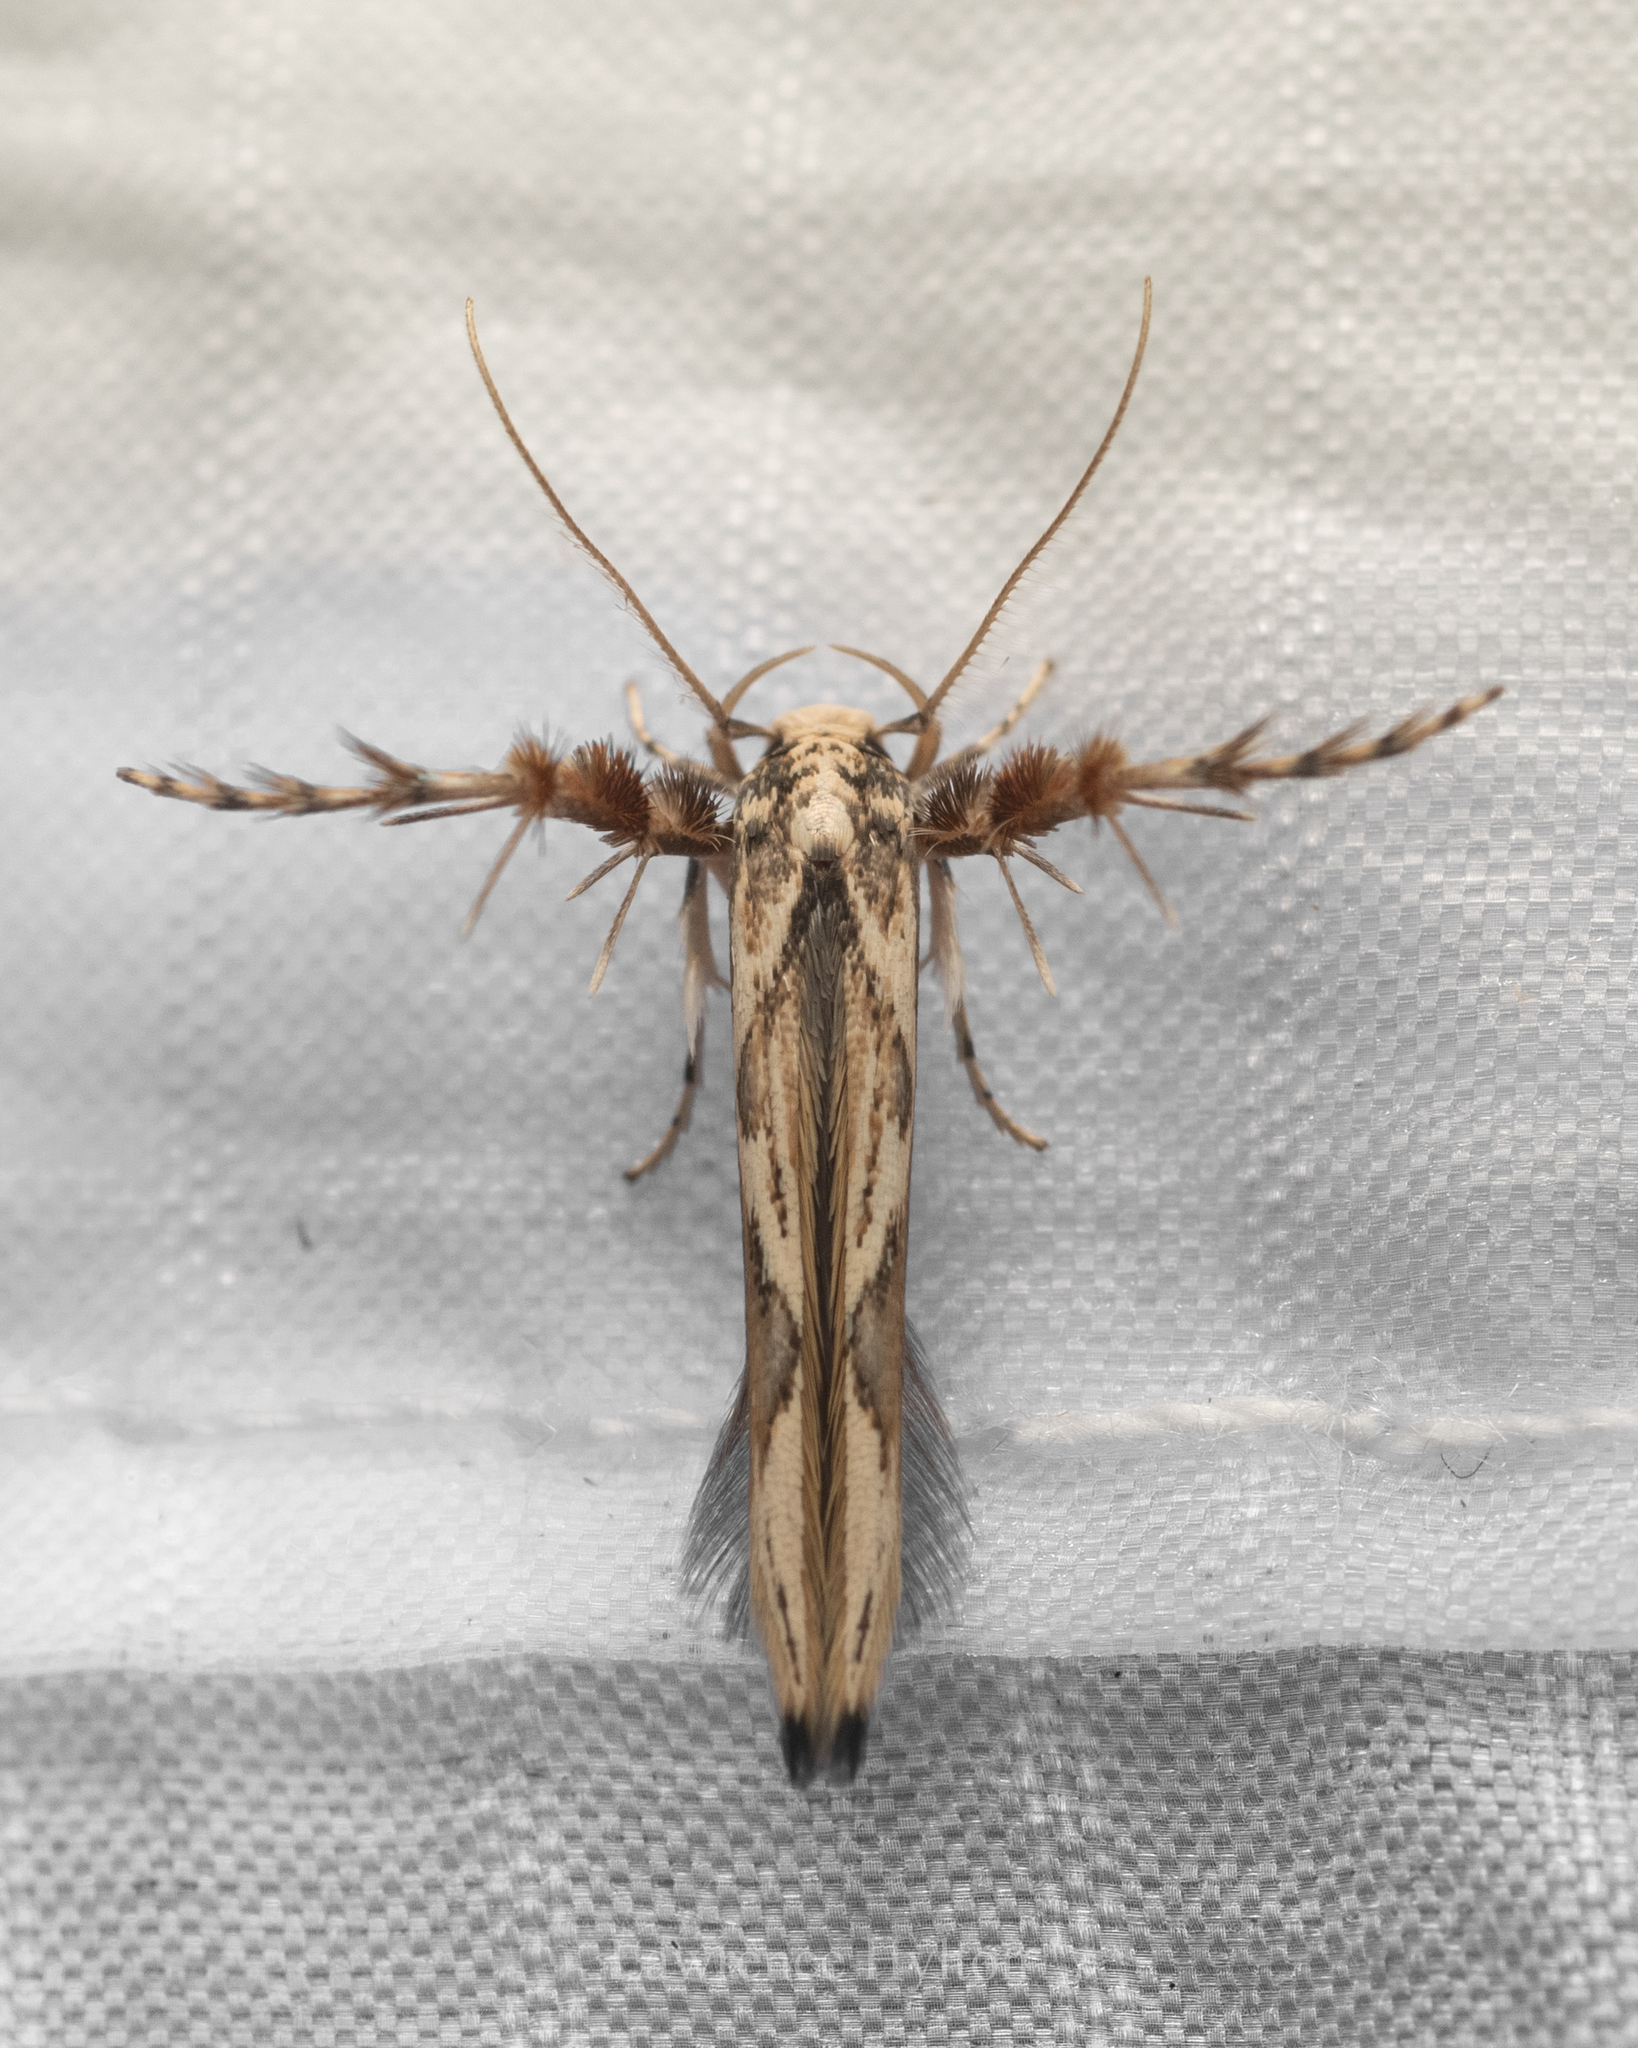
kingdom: Animalia
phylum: Arthropoda
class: Insecta
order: Lepidoptera
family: Stathmopodidae
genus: Stathmopoda
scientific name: Stathmopoda stimulata
